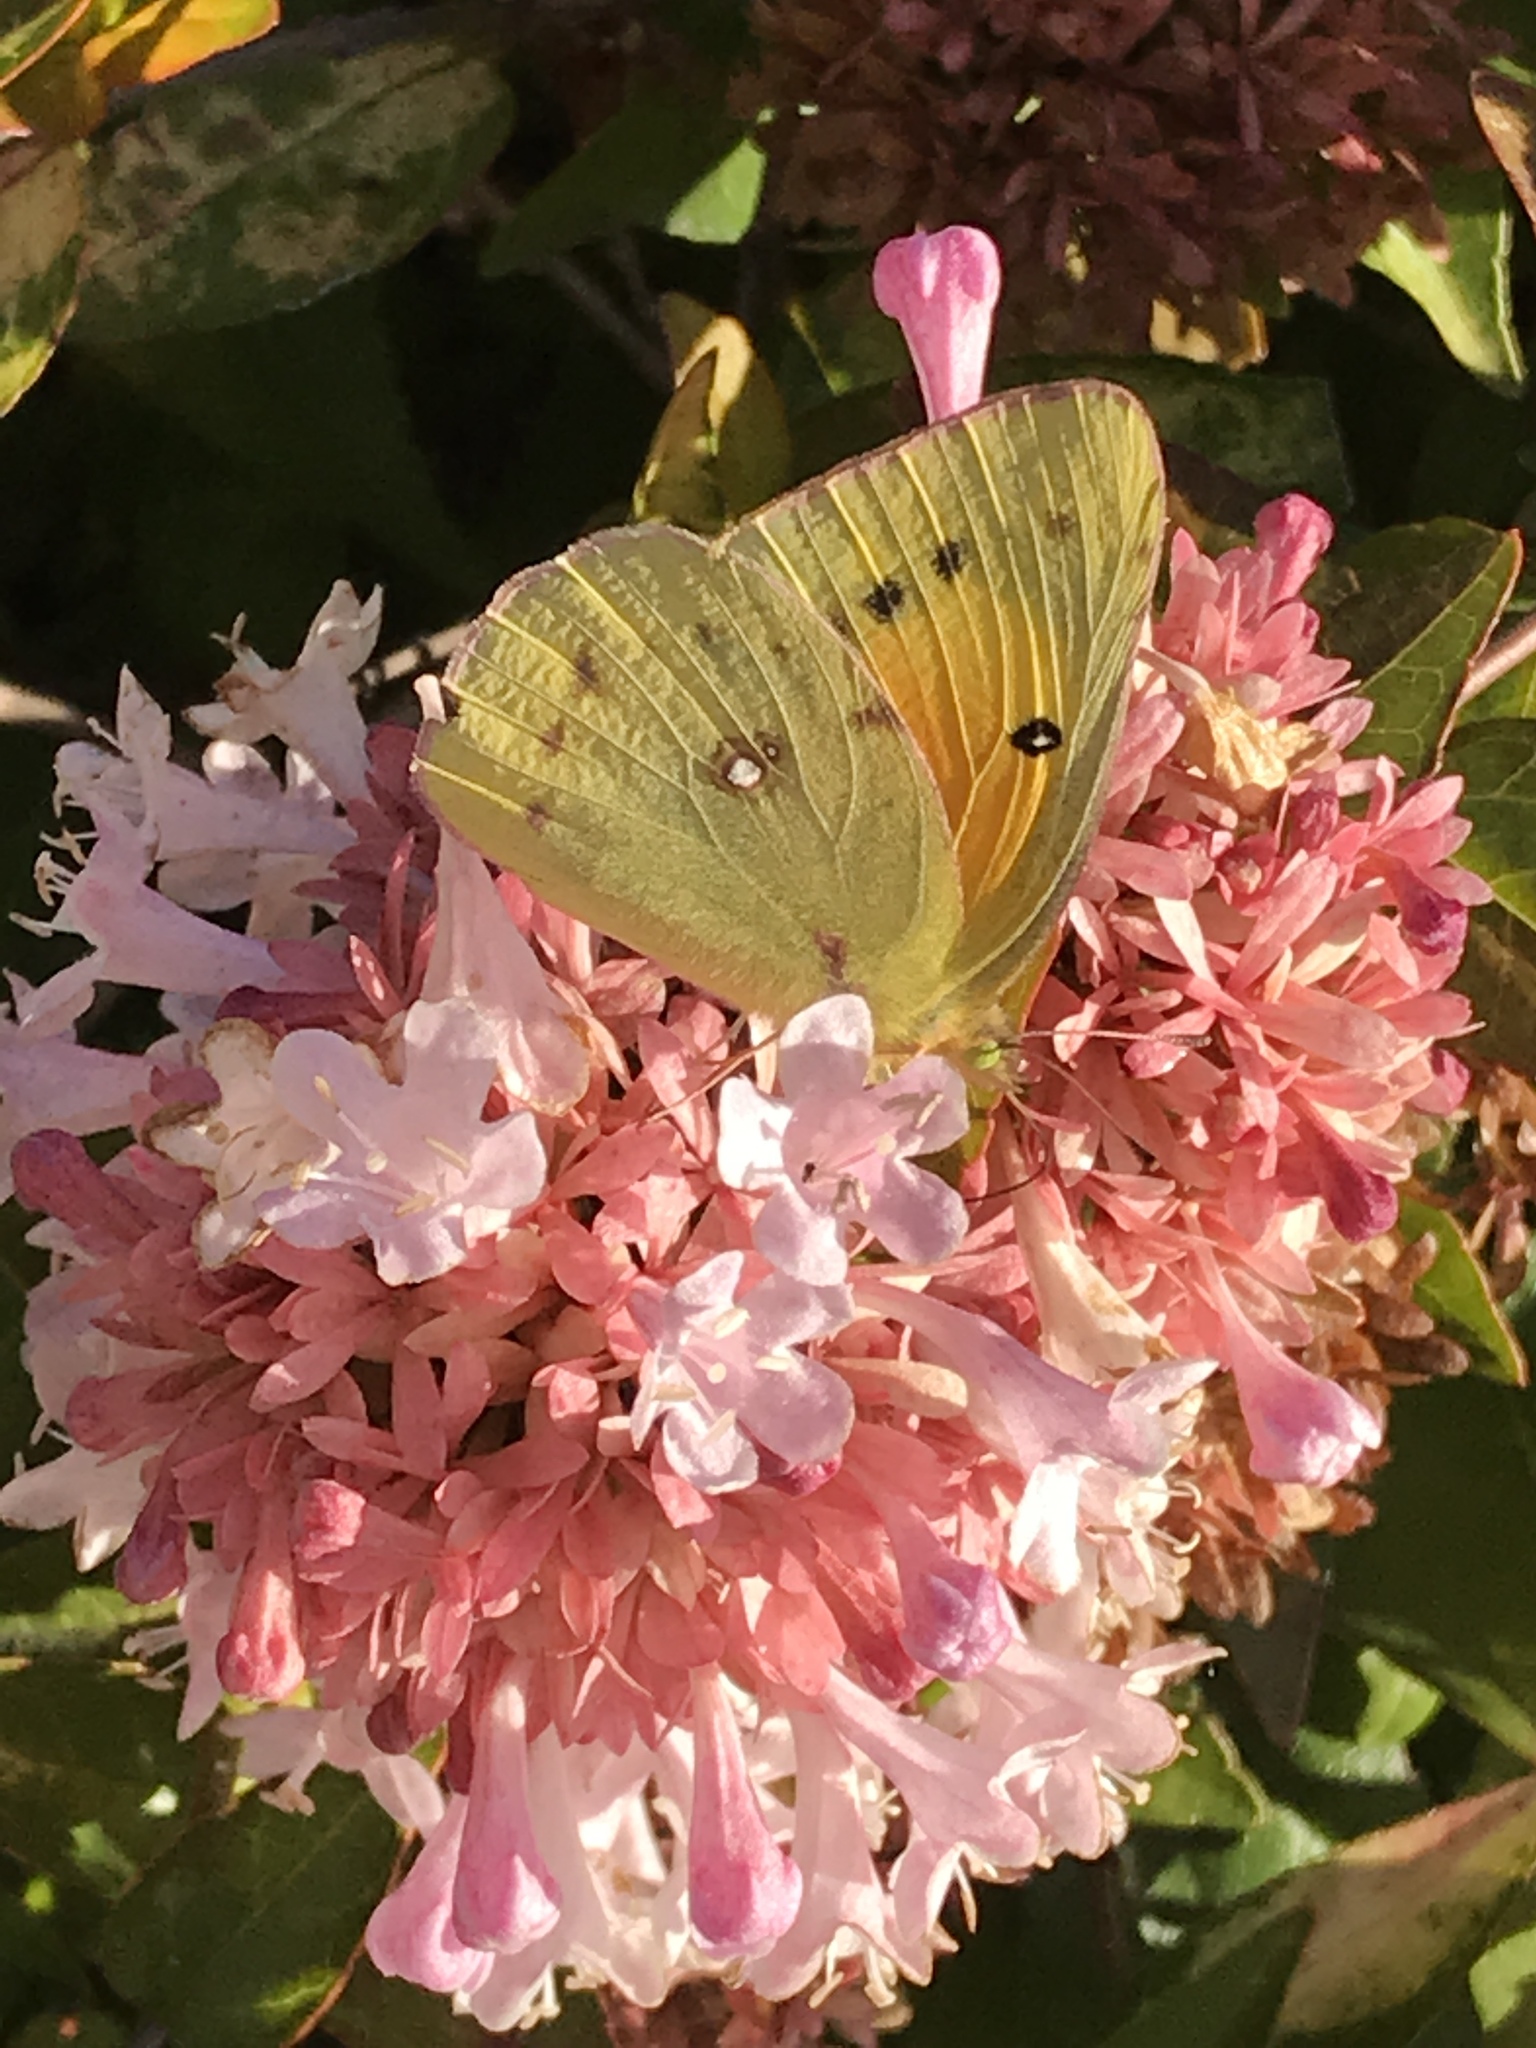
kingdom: Animalia
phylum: Arthropoda
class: Insecta
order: Lepidoptera
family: Pieridae
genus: Colias
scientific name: Colias eurytheme
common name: Alfalfa butterfly
